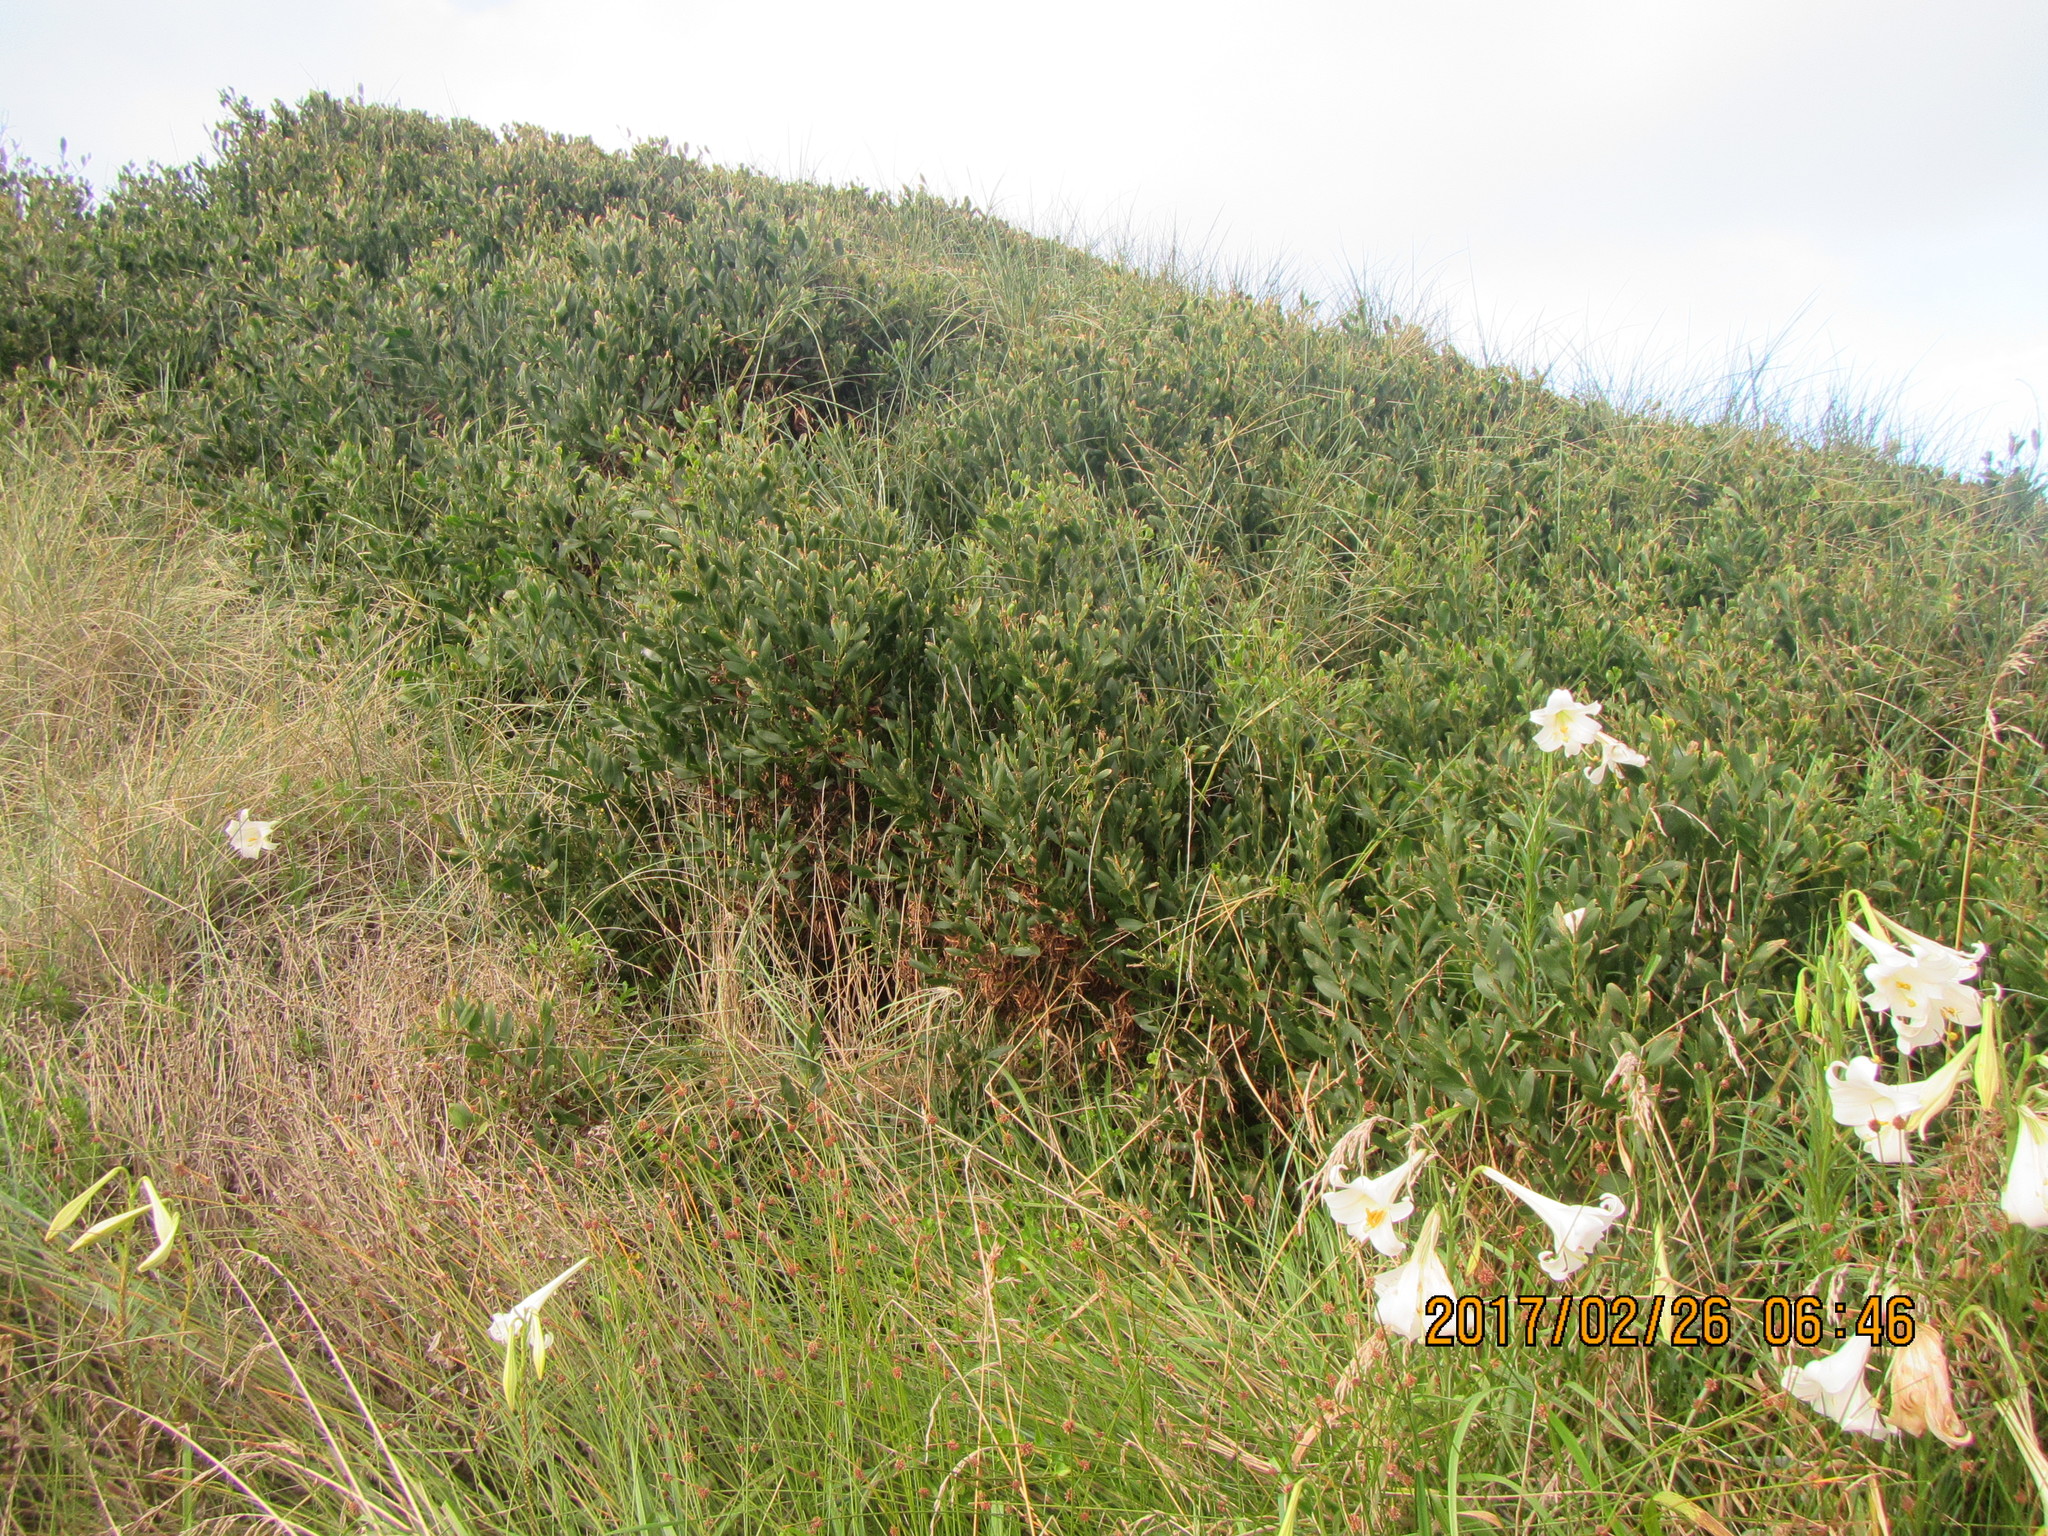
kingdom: Plantae
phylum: Tracheophyta
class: Magnoliopsida
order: Fabales
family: Fabaceae
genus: Acacia
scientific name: Acacia longifolia
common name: Sydney golden wattle
